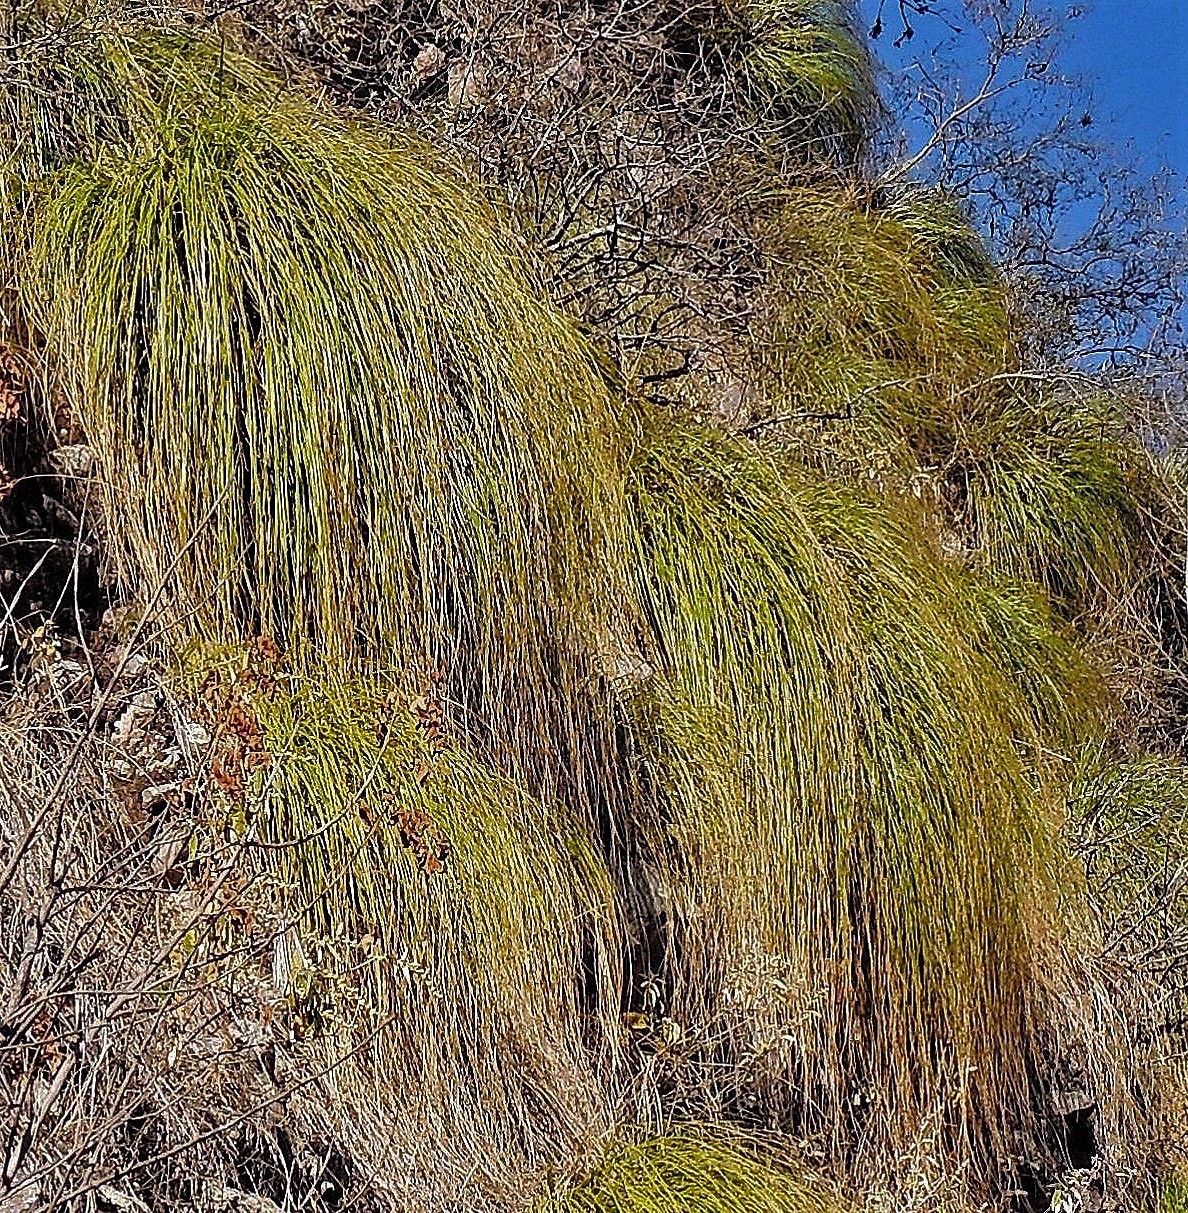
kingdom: Plantae
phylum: Tracheophyta
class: Liliopsida
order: Poales
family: Poaceae
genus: Cortaderia
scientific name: Cortaderia hieronymi
